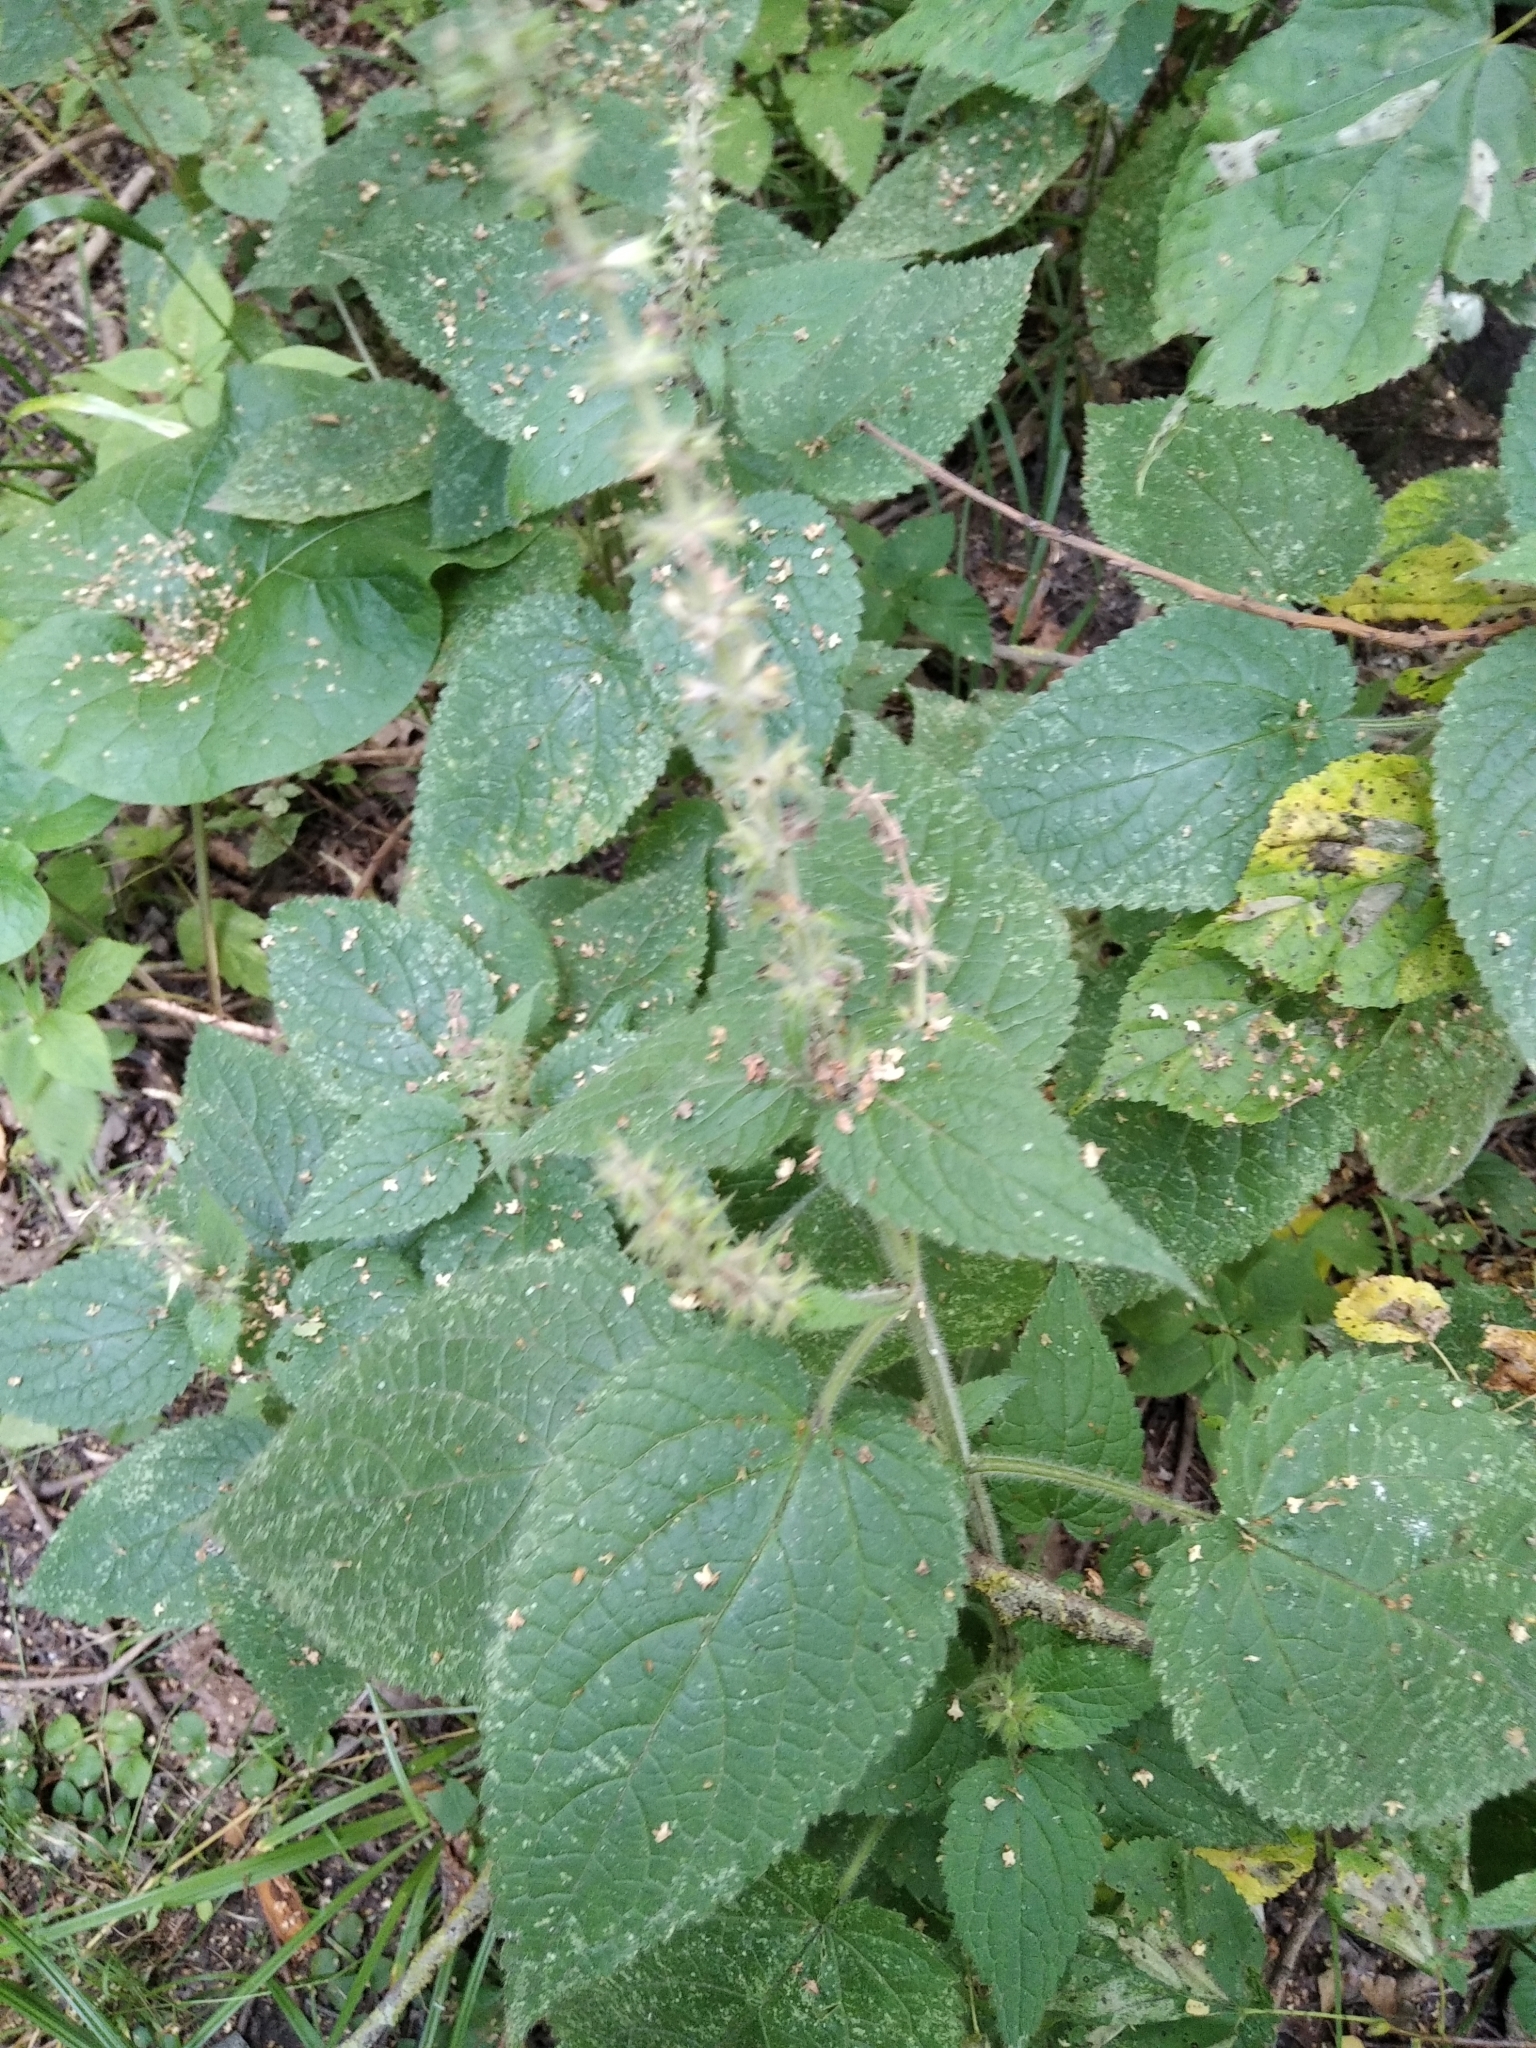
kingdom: Plantae
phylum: Tracheophyta
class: Magnoliopsida
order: Lamiales
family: Lamiaceae
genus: Stachys
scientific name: Stachys sylvatica
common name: Hedge woundwort
